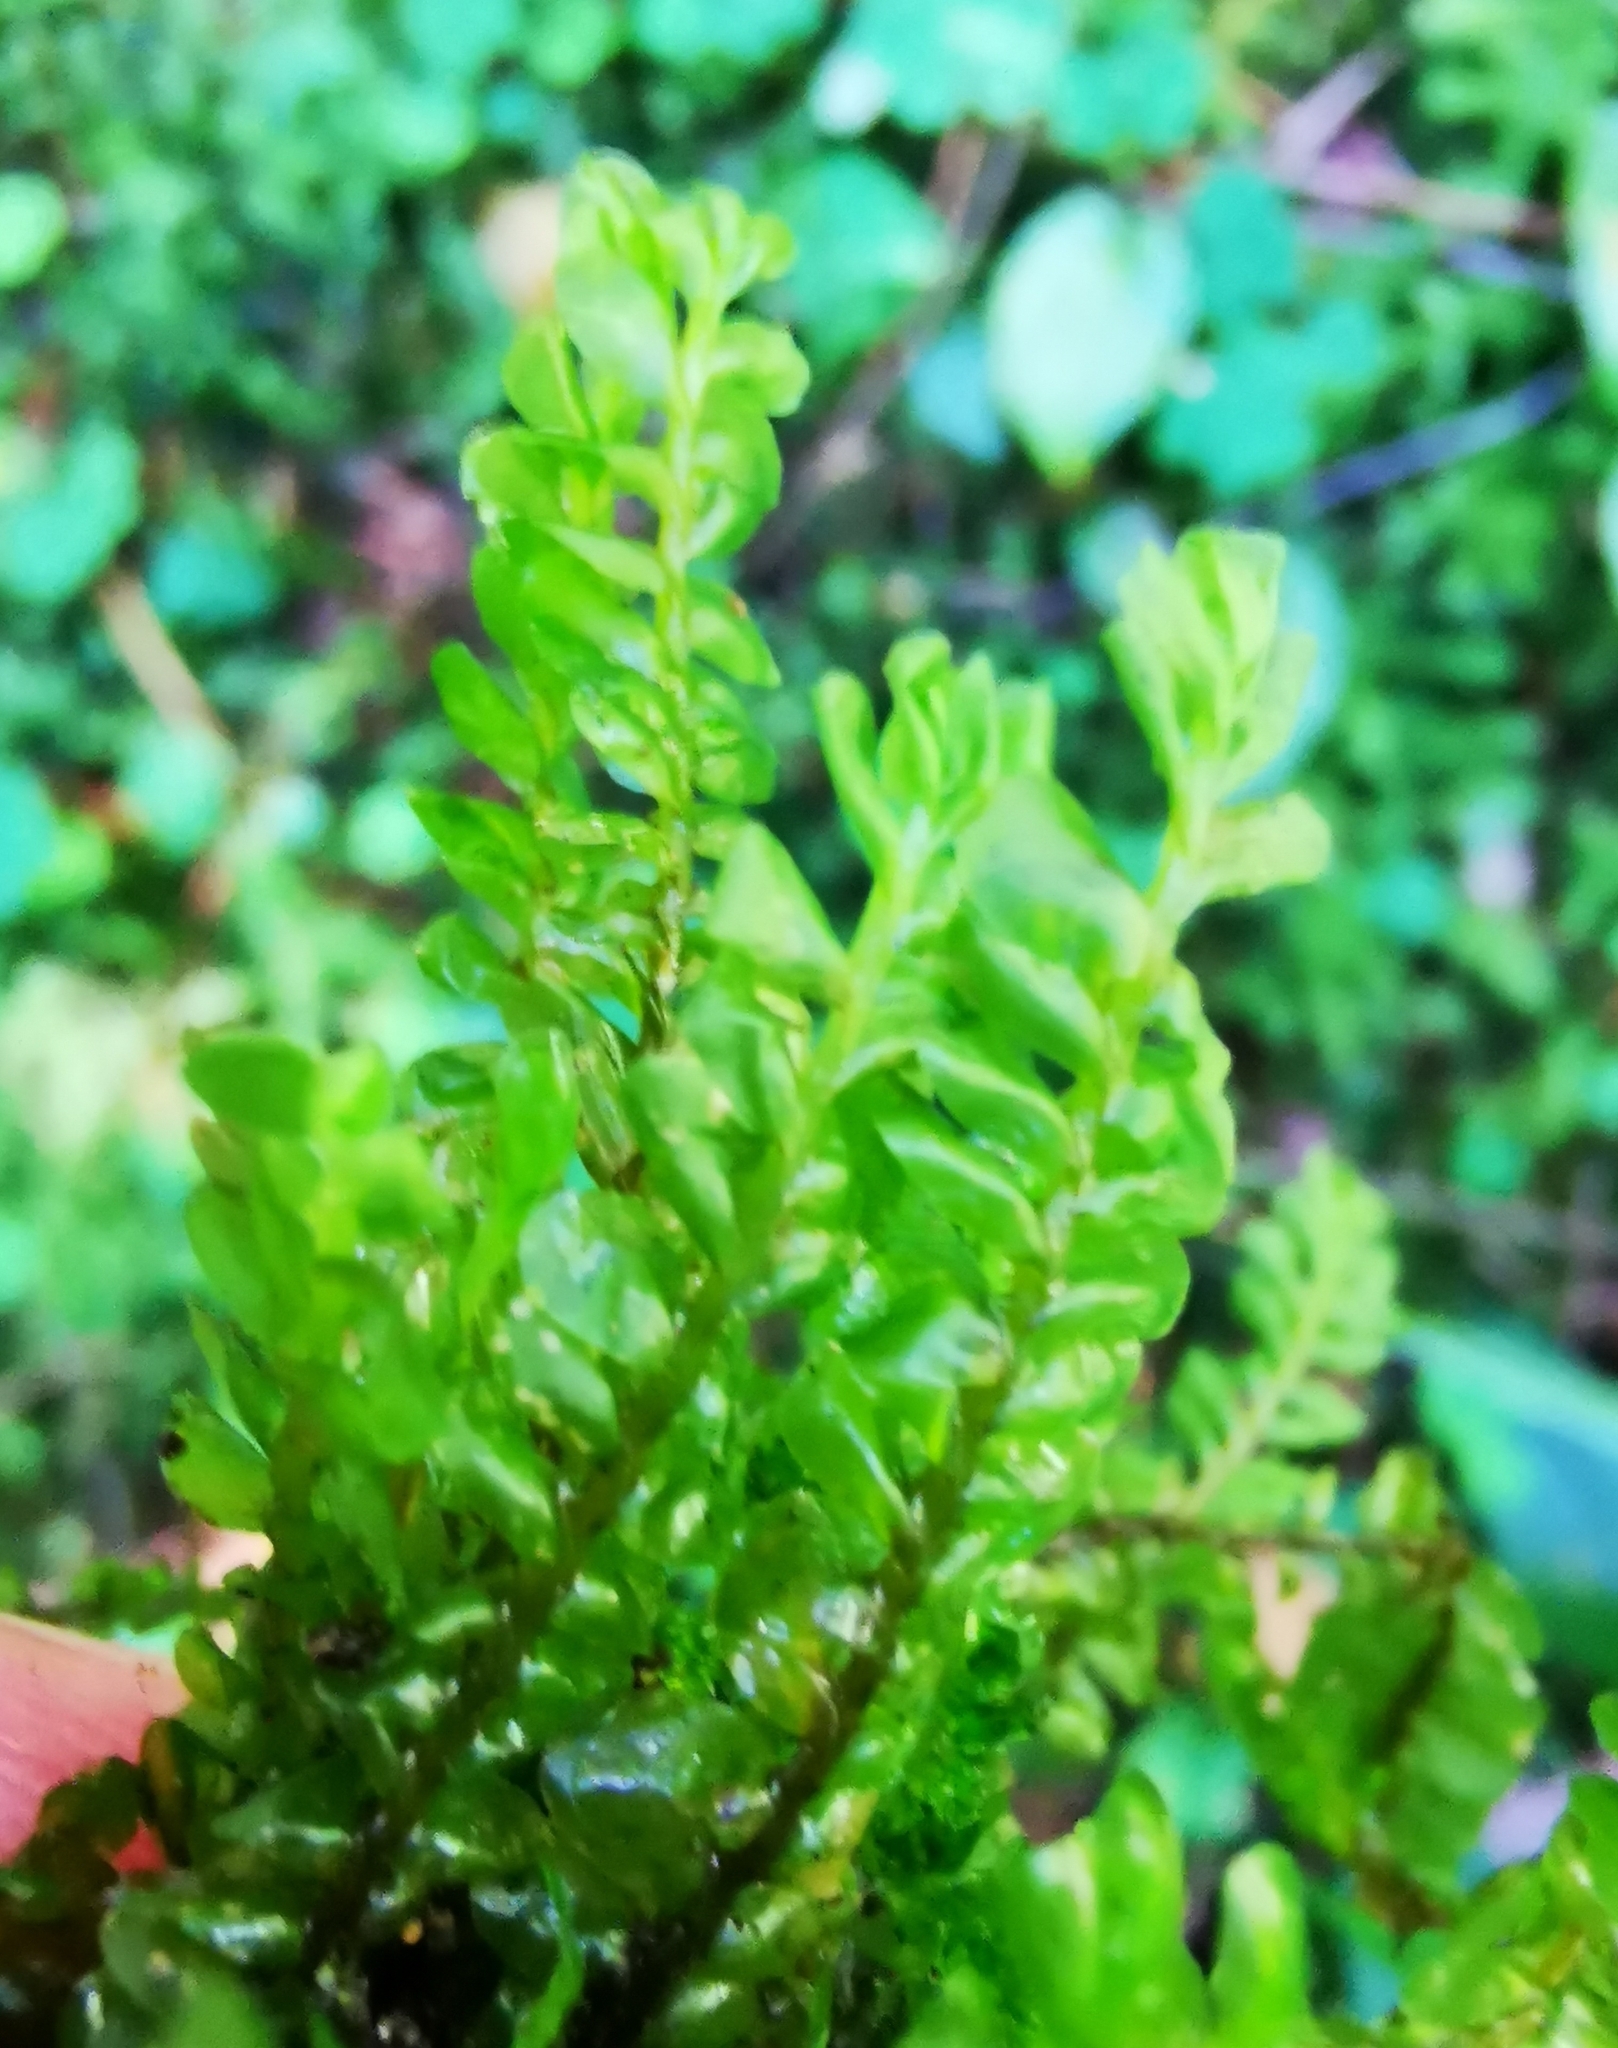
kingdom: Plantae
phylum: Marchantiophyta
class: Jungermanniopsida
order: Jungermanniales
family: Plagiochilaceae
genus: Plagiochila
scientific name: Plagiochila asplenioides
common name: Greater featherwort
